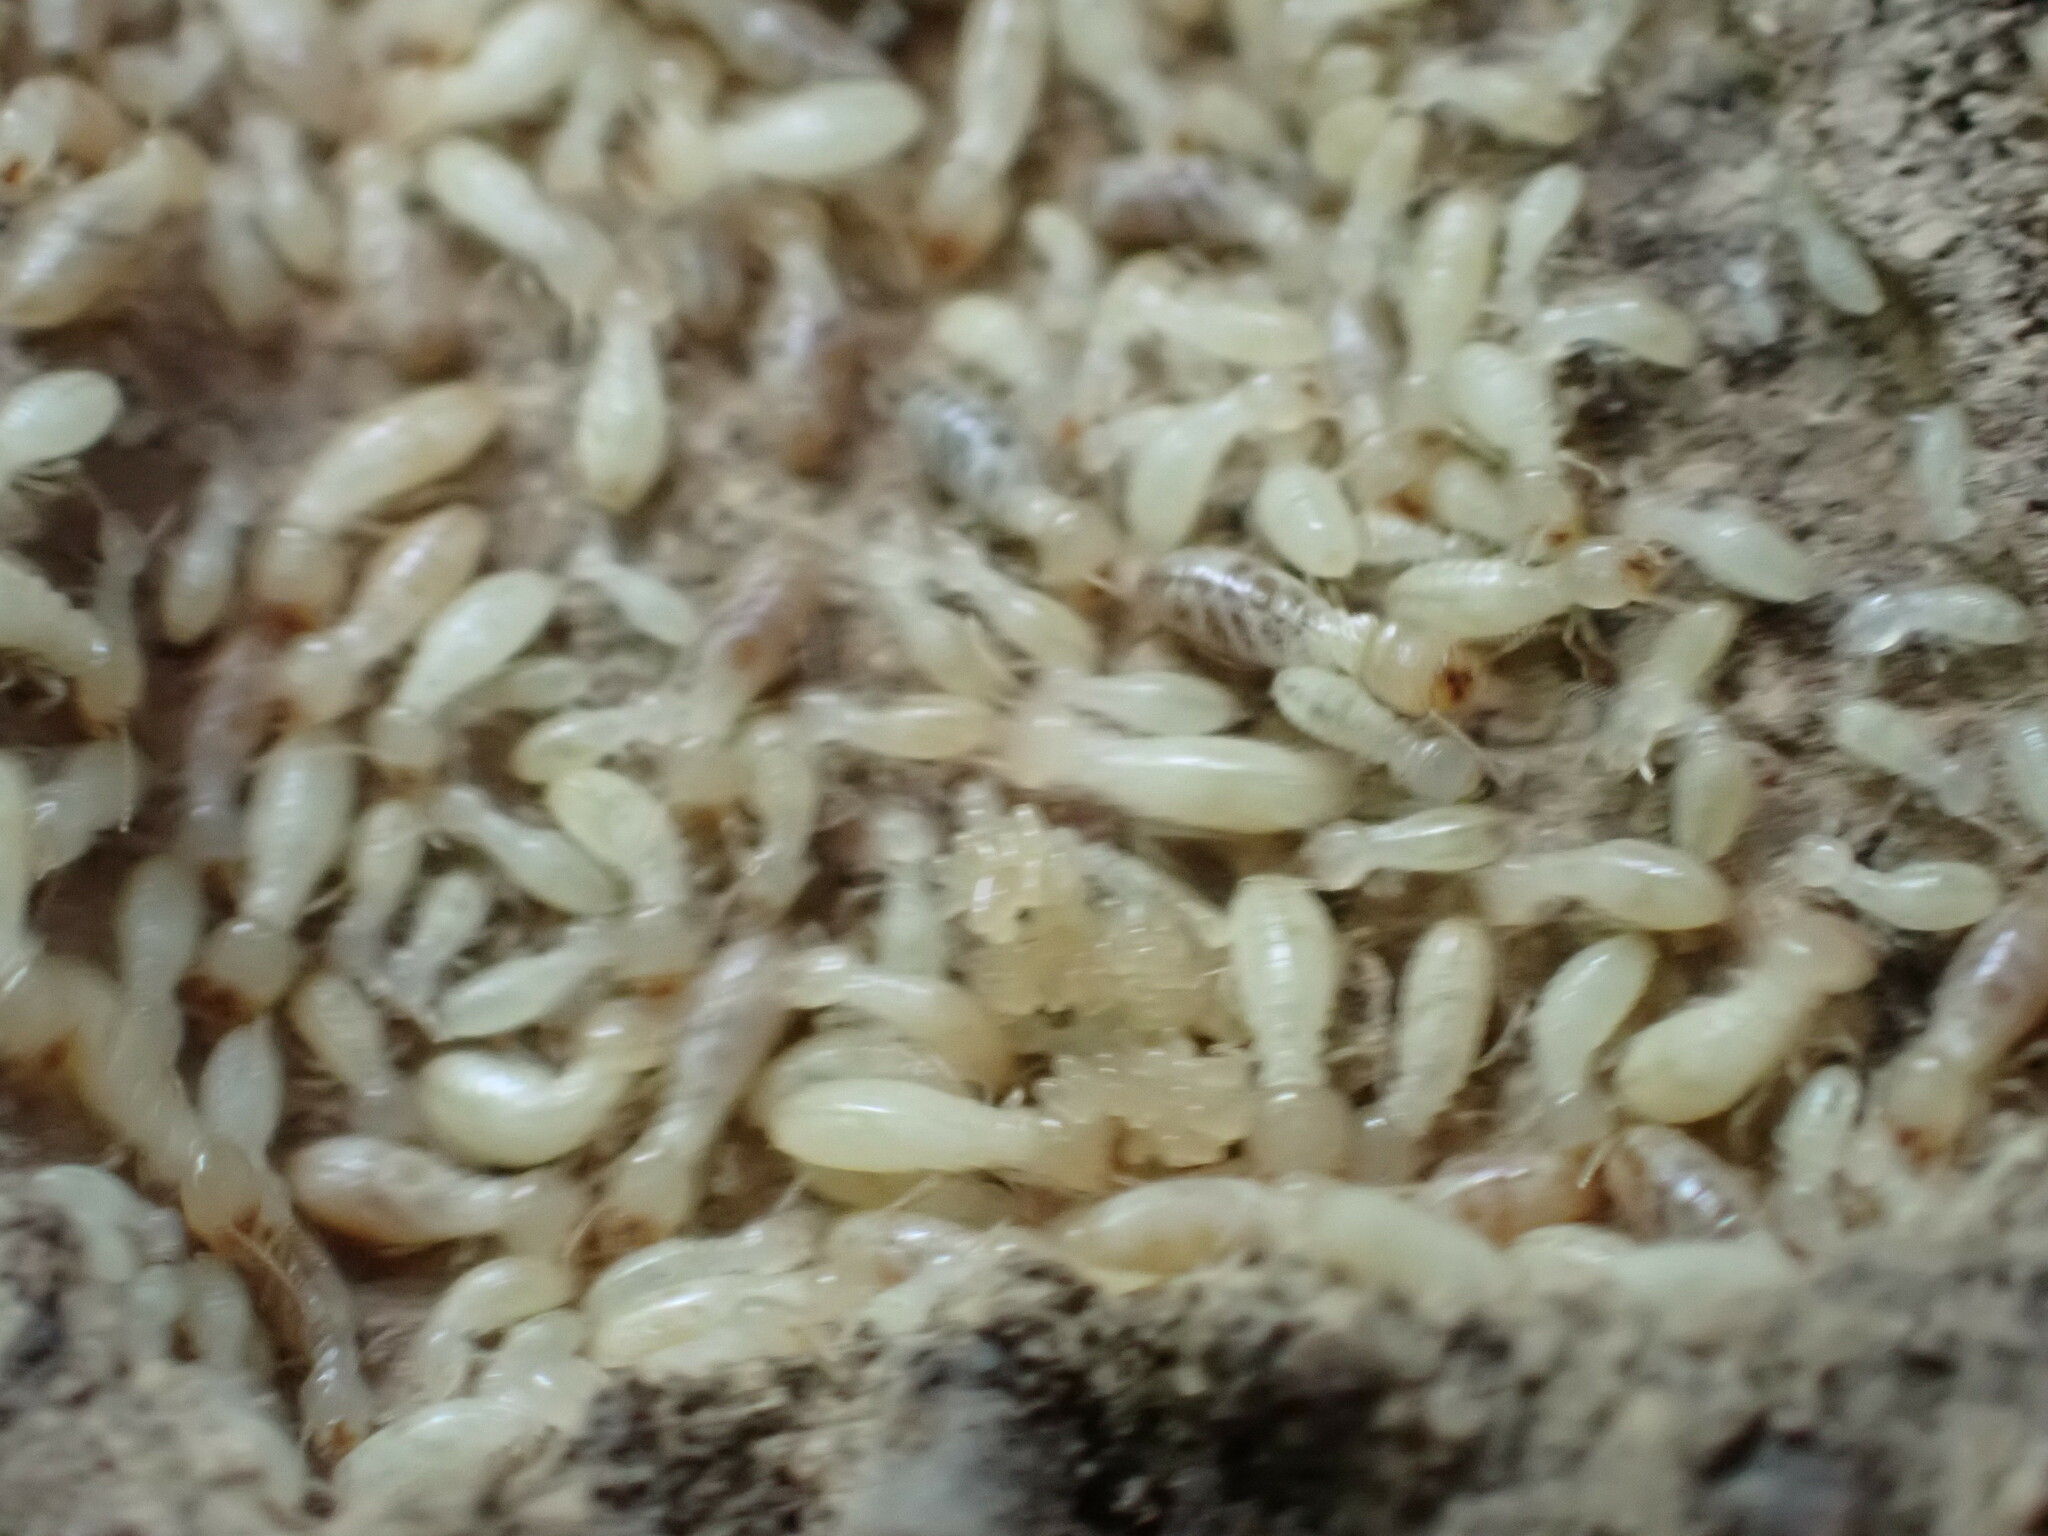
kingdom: Animalia
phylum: Arthropoda
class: Insecta
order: Blattodea
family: Rhinotermitidae
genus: Reticulitermes
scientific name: Reticulitermes flavipes
